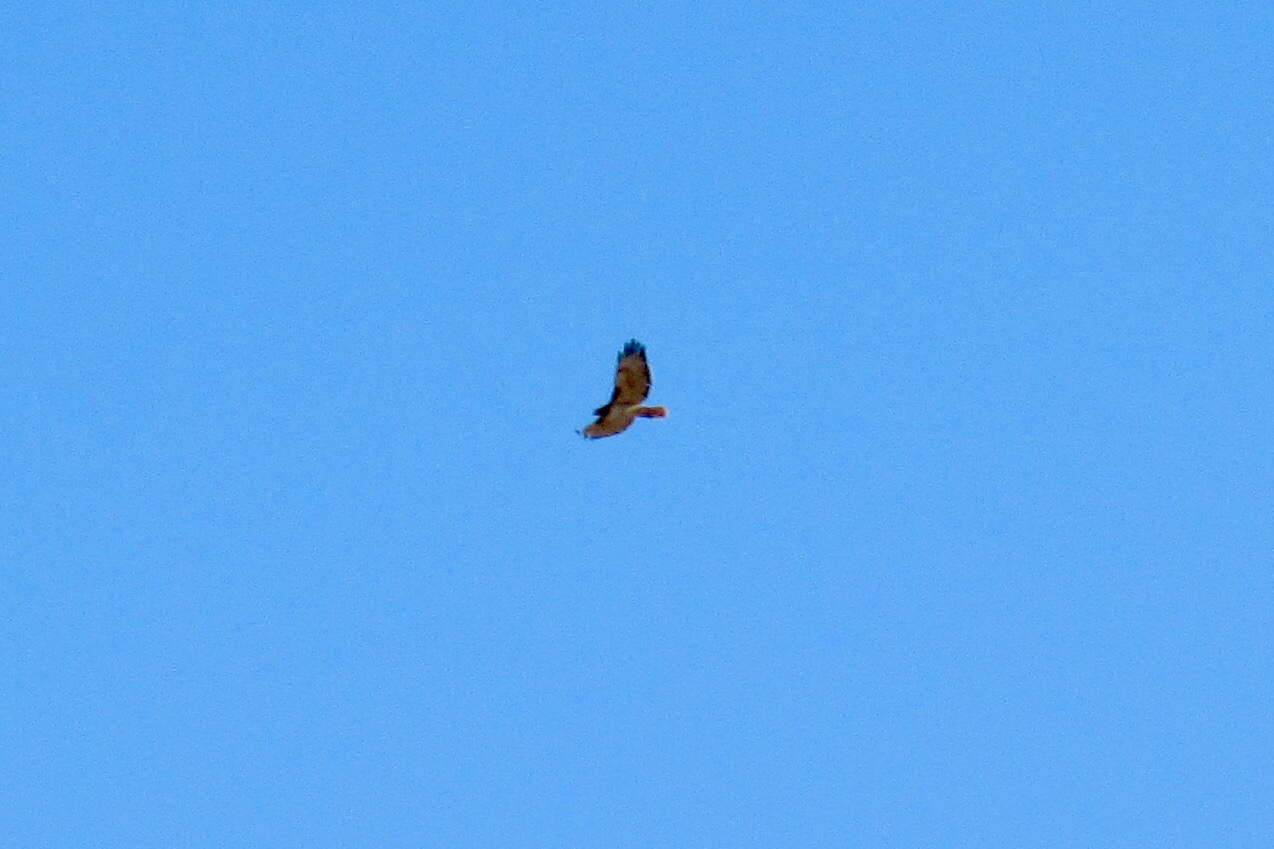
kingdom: Animalia
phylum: Chordata
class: Aves
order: Accipitriformes
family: Accipitridae
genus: Buteo
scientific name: Buteo jamaicensis
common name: Red-tailed hawk
